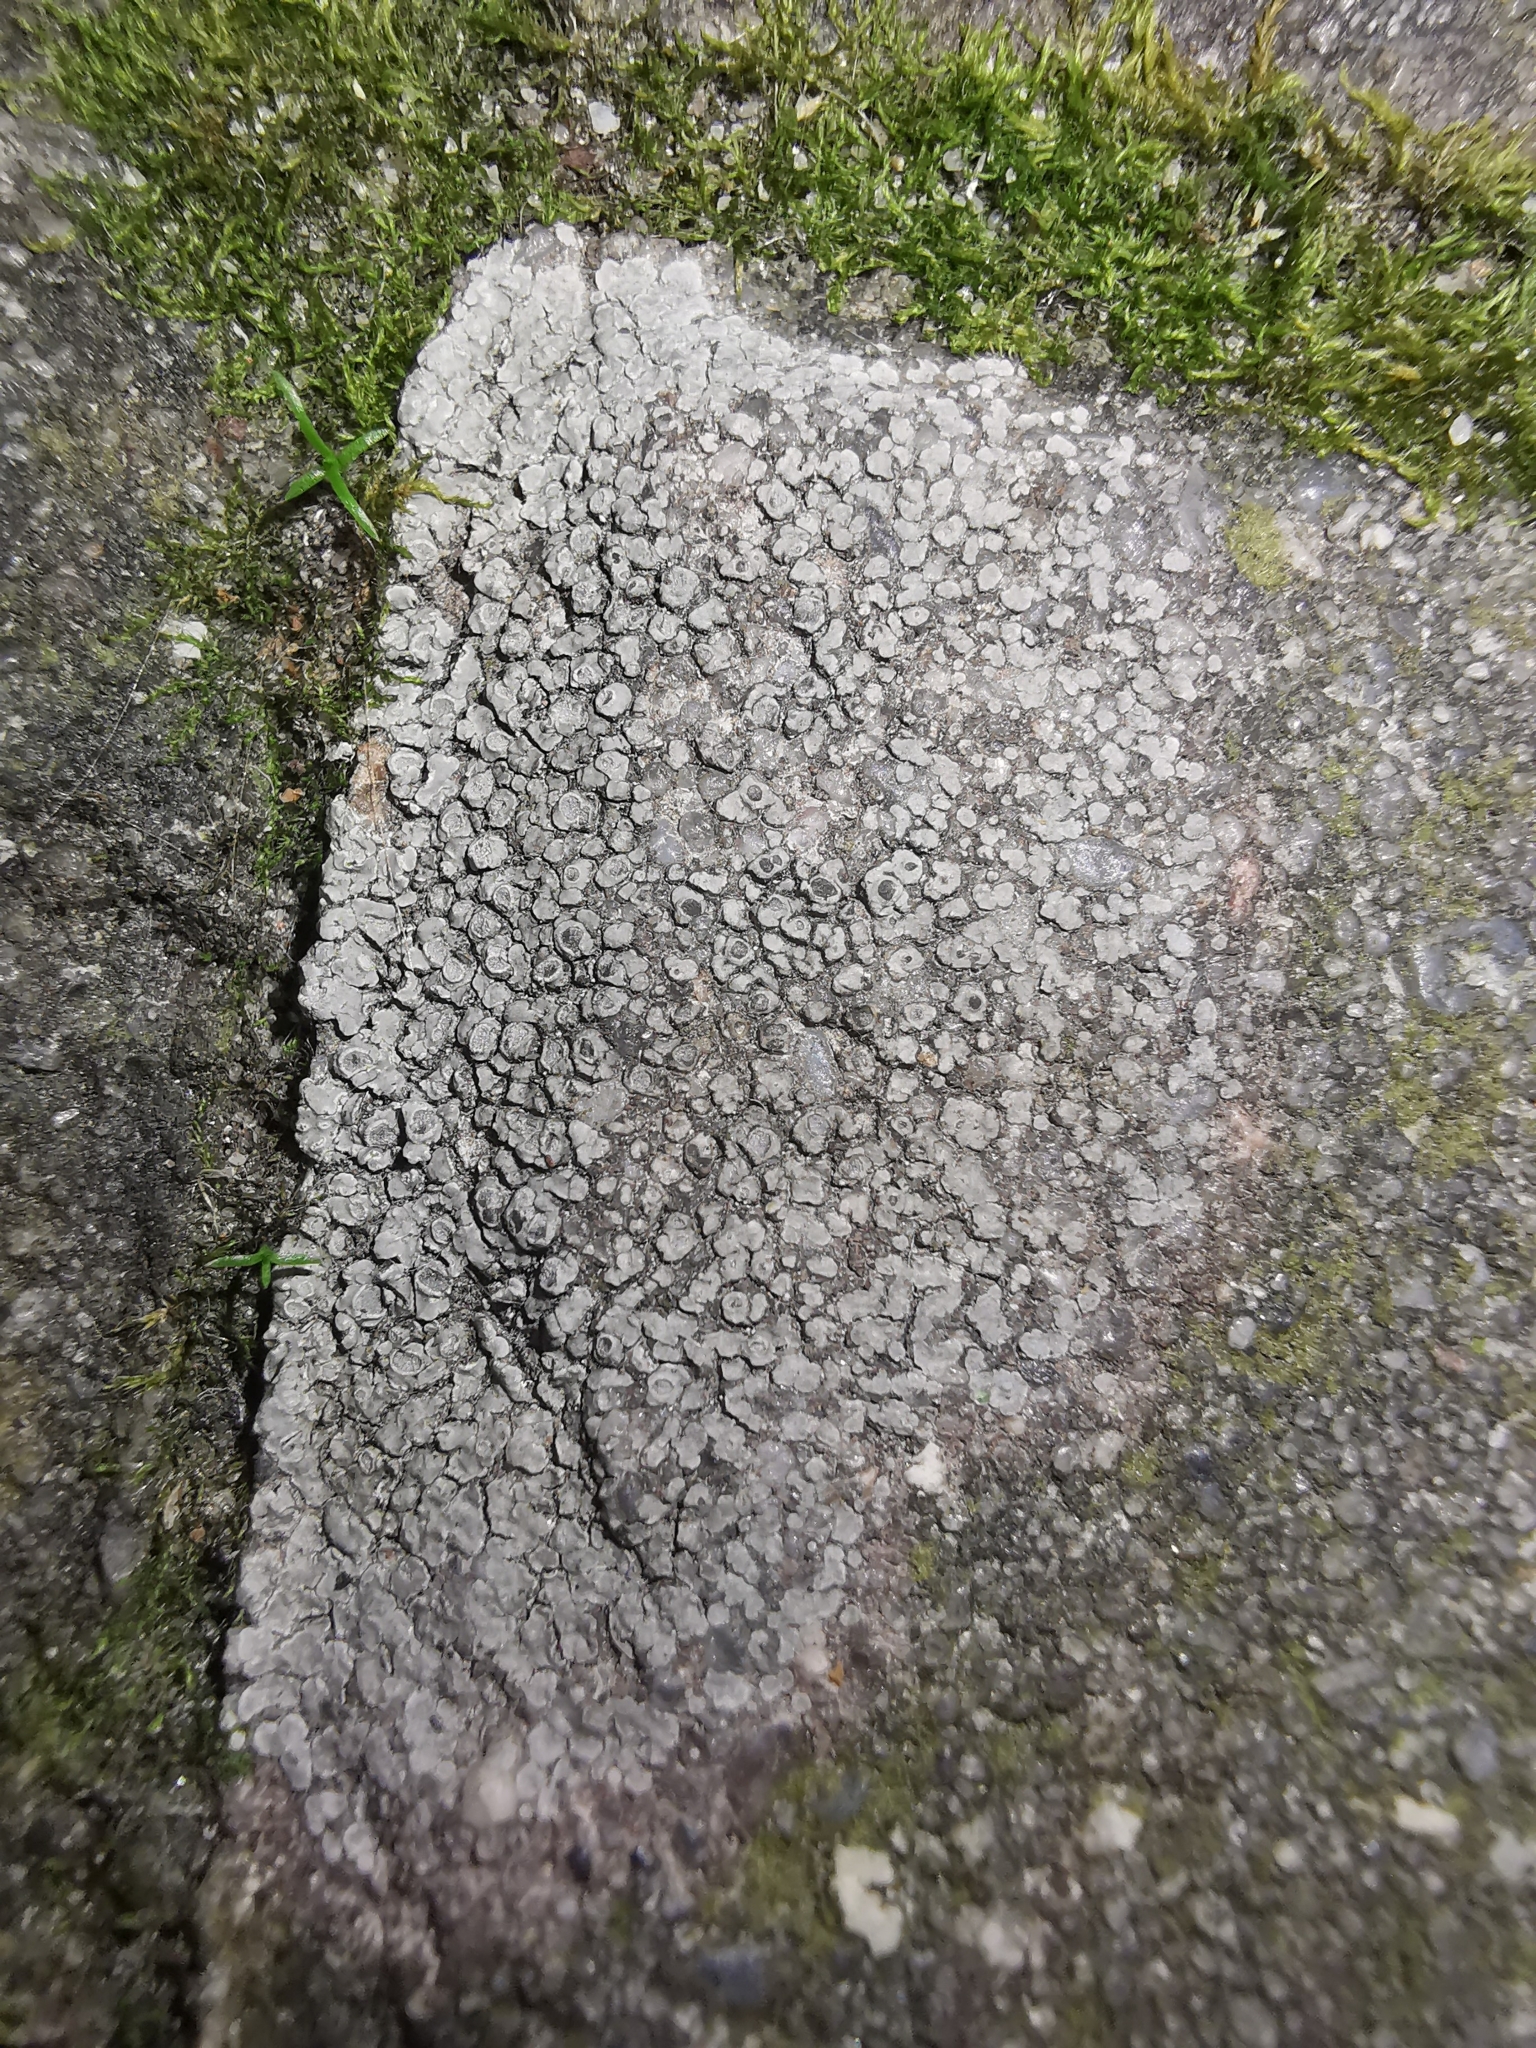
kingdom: Fungi
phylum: Ascomycota
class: Lecanoromycetes
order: Pertusariales
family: Megasporaceae
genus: Circinaria
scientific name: Circinaria contorta
